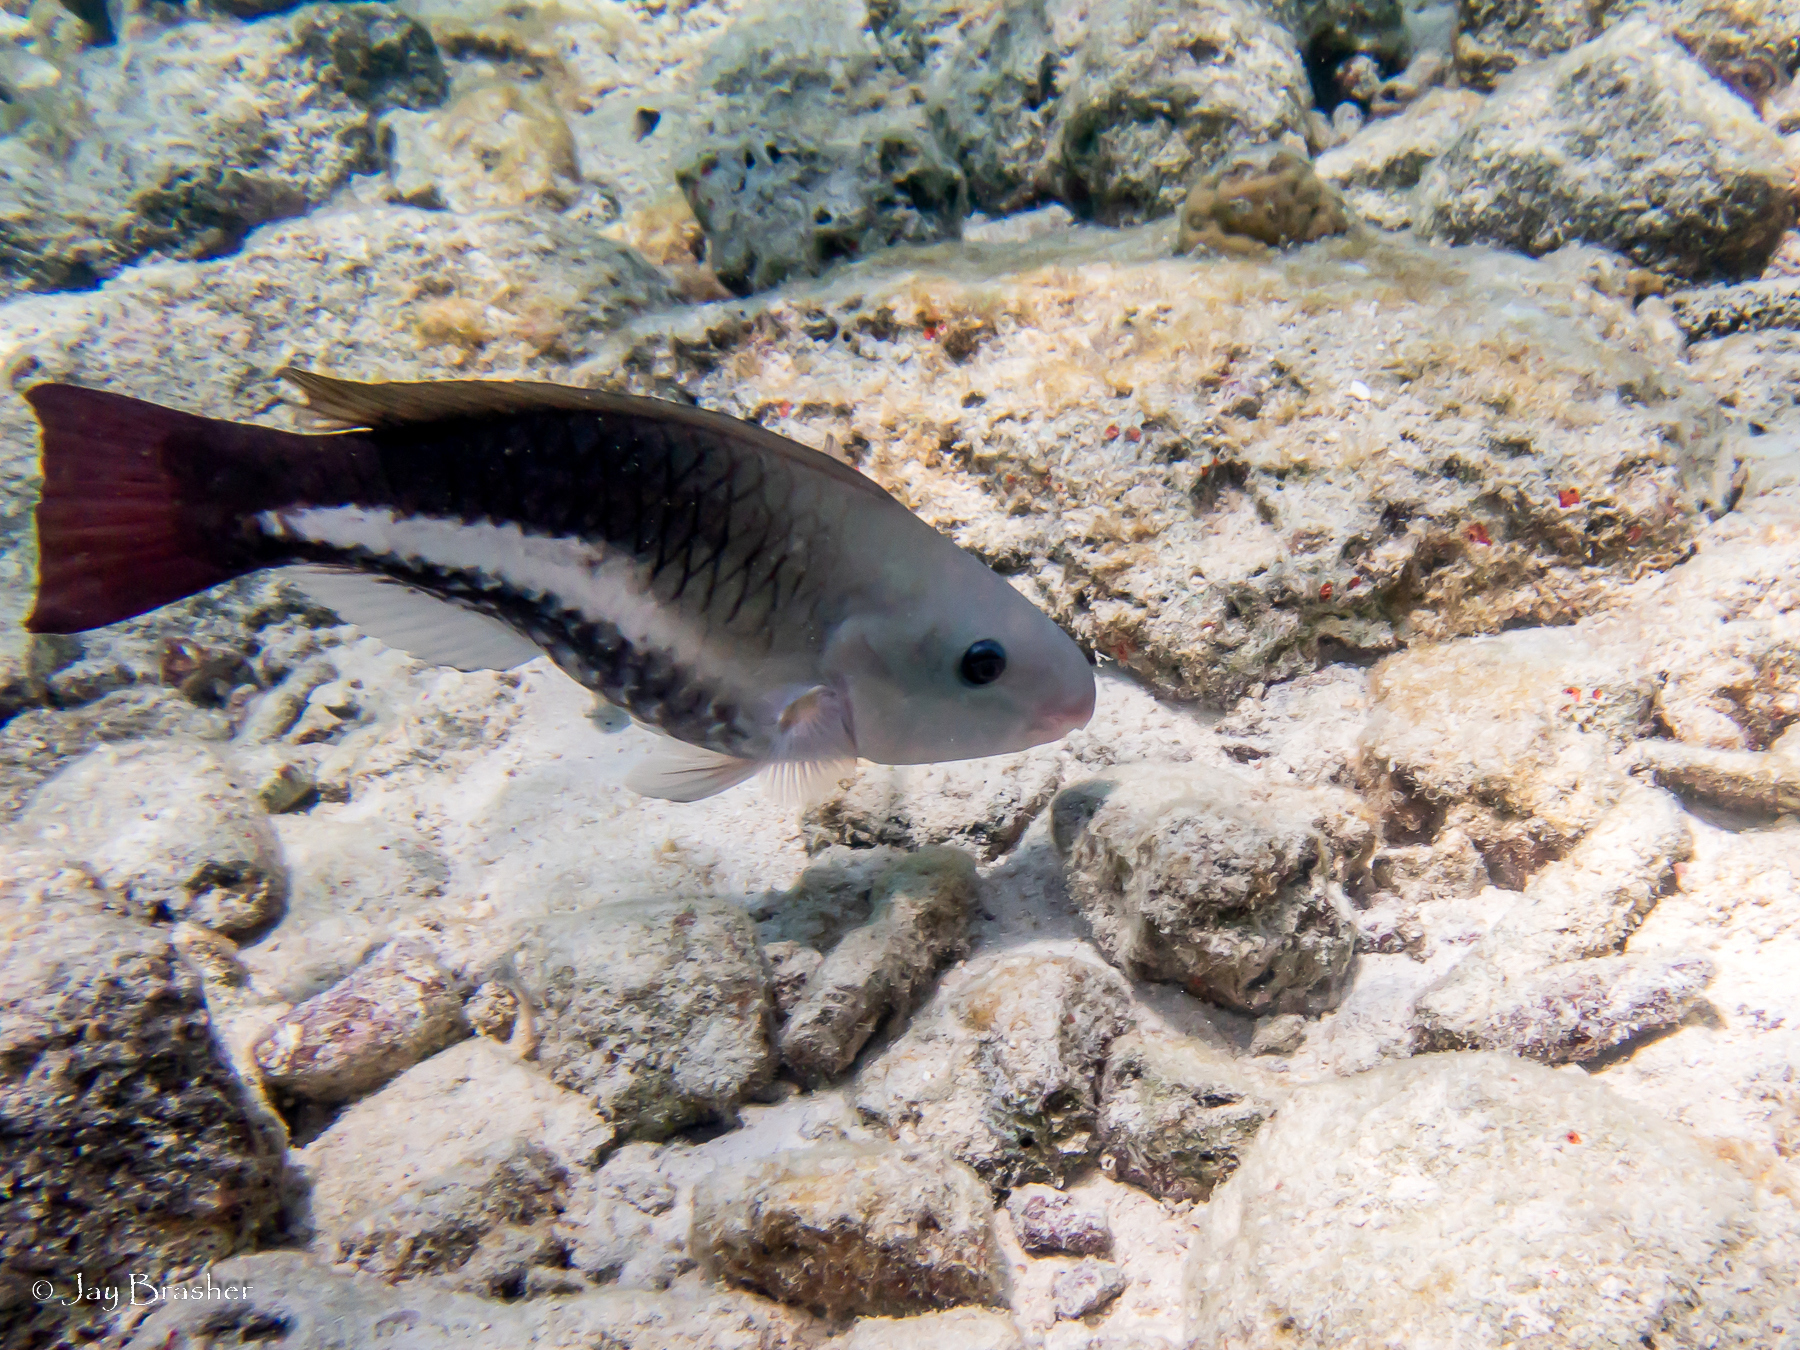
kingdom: Animalia
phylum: Chordata
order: Perciformes
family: Scaridae
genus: Scarus
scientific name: Scarus vetula
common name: Queen parrotfish
